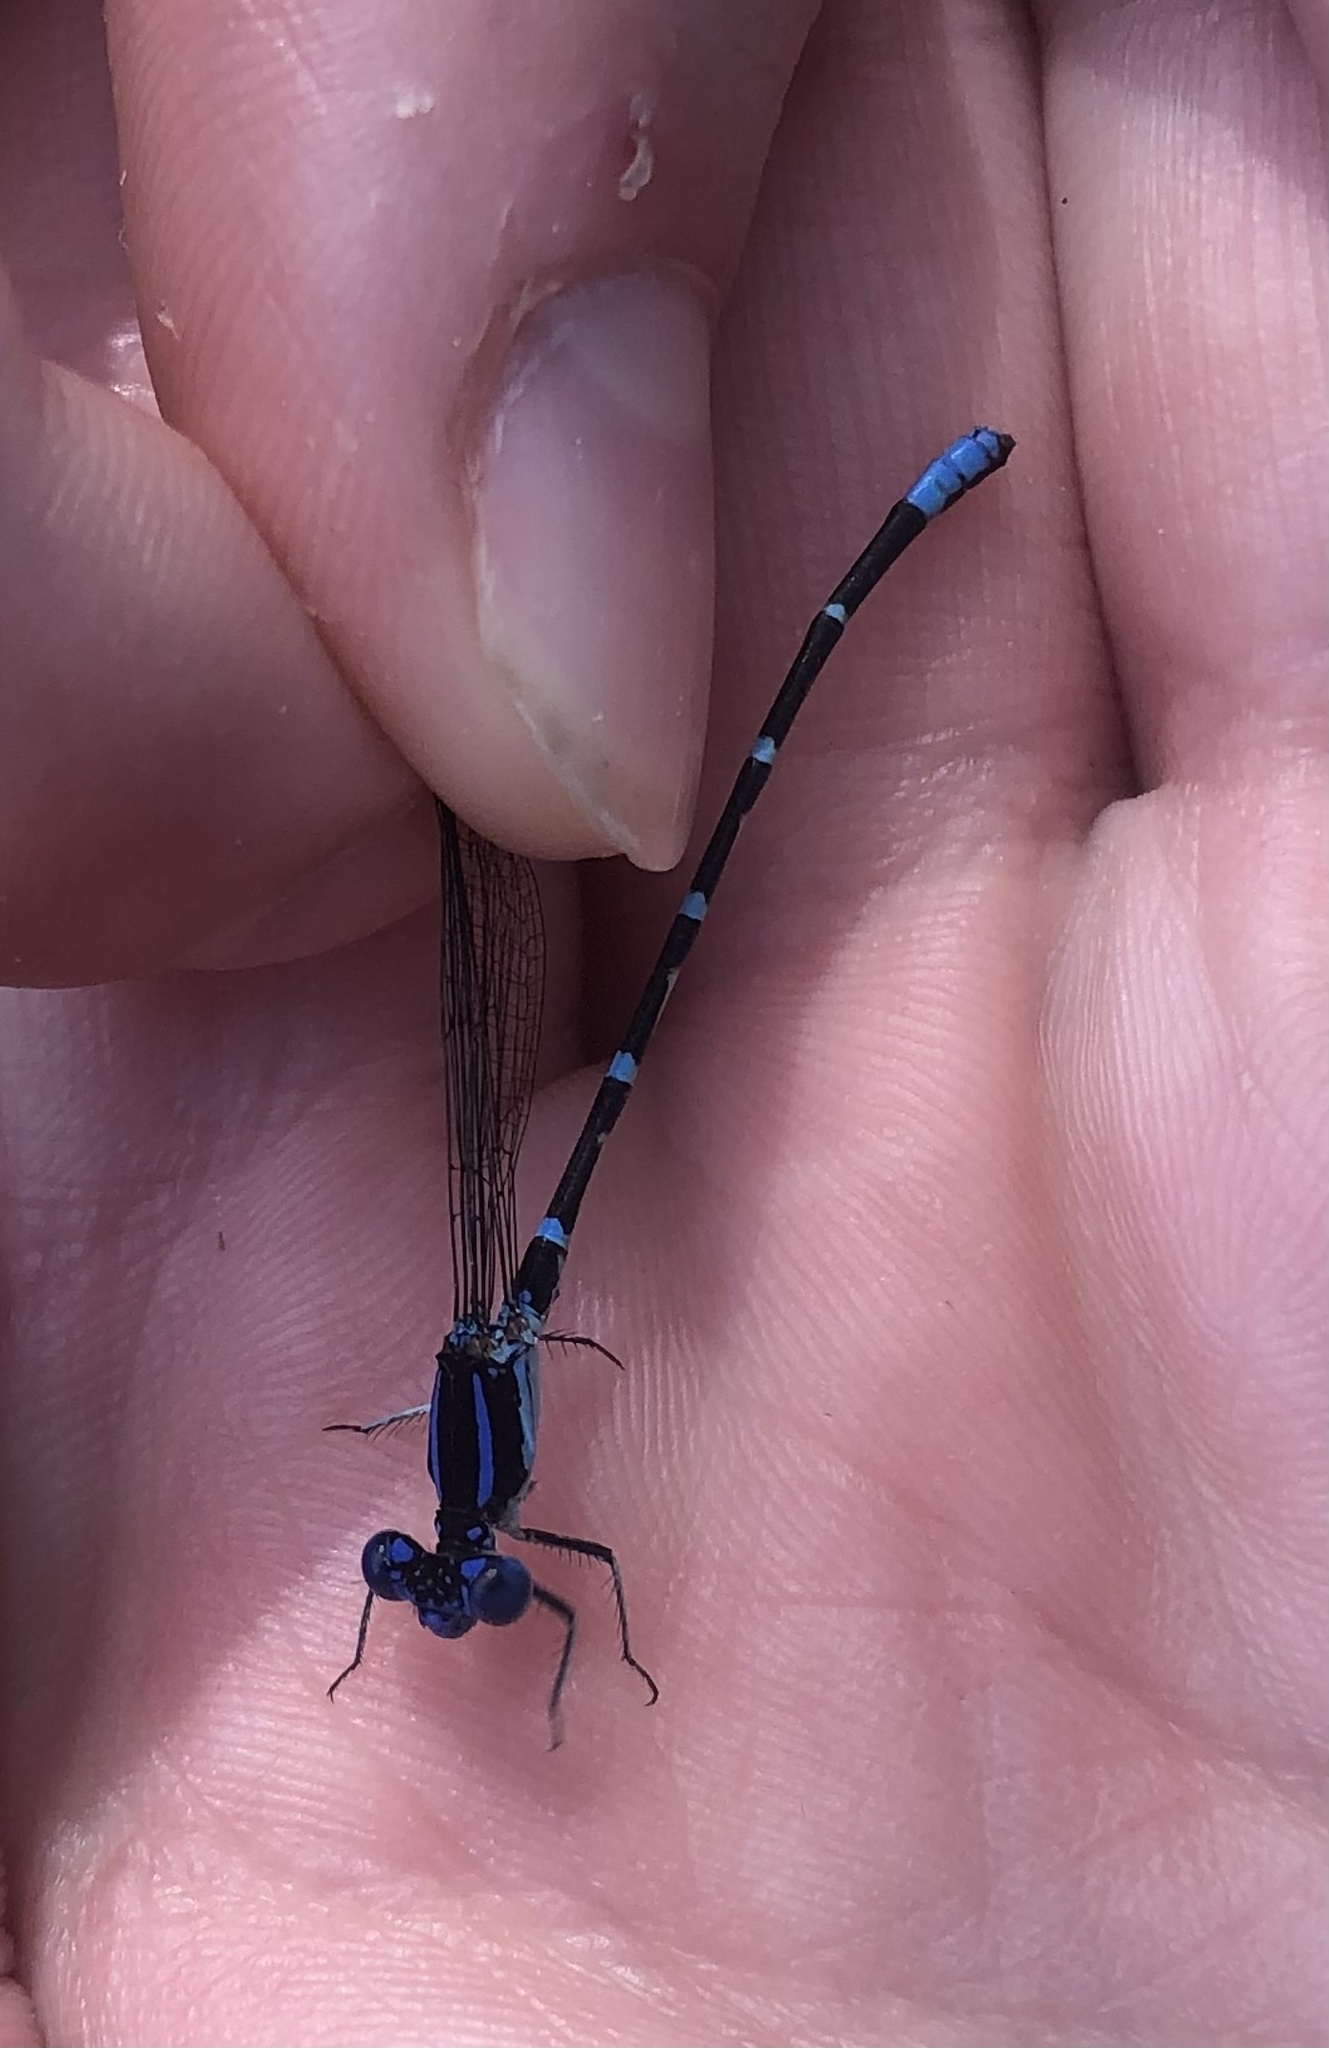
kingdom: Animalia
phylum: Arthropoda
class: Insecta
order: Odonata
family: Coenagrionidae
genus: Argia
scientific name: Argia sedula
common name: Blue-ringed dancer
